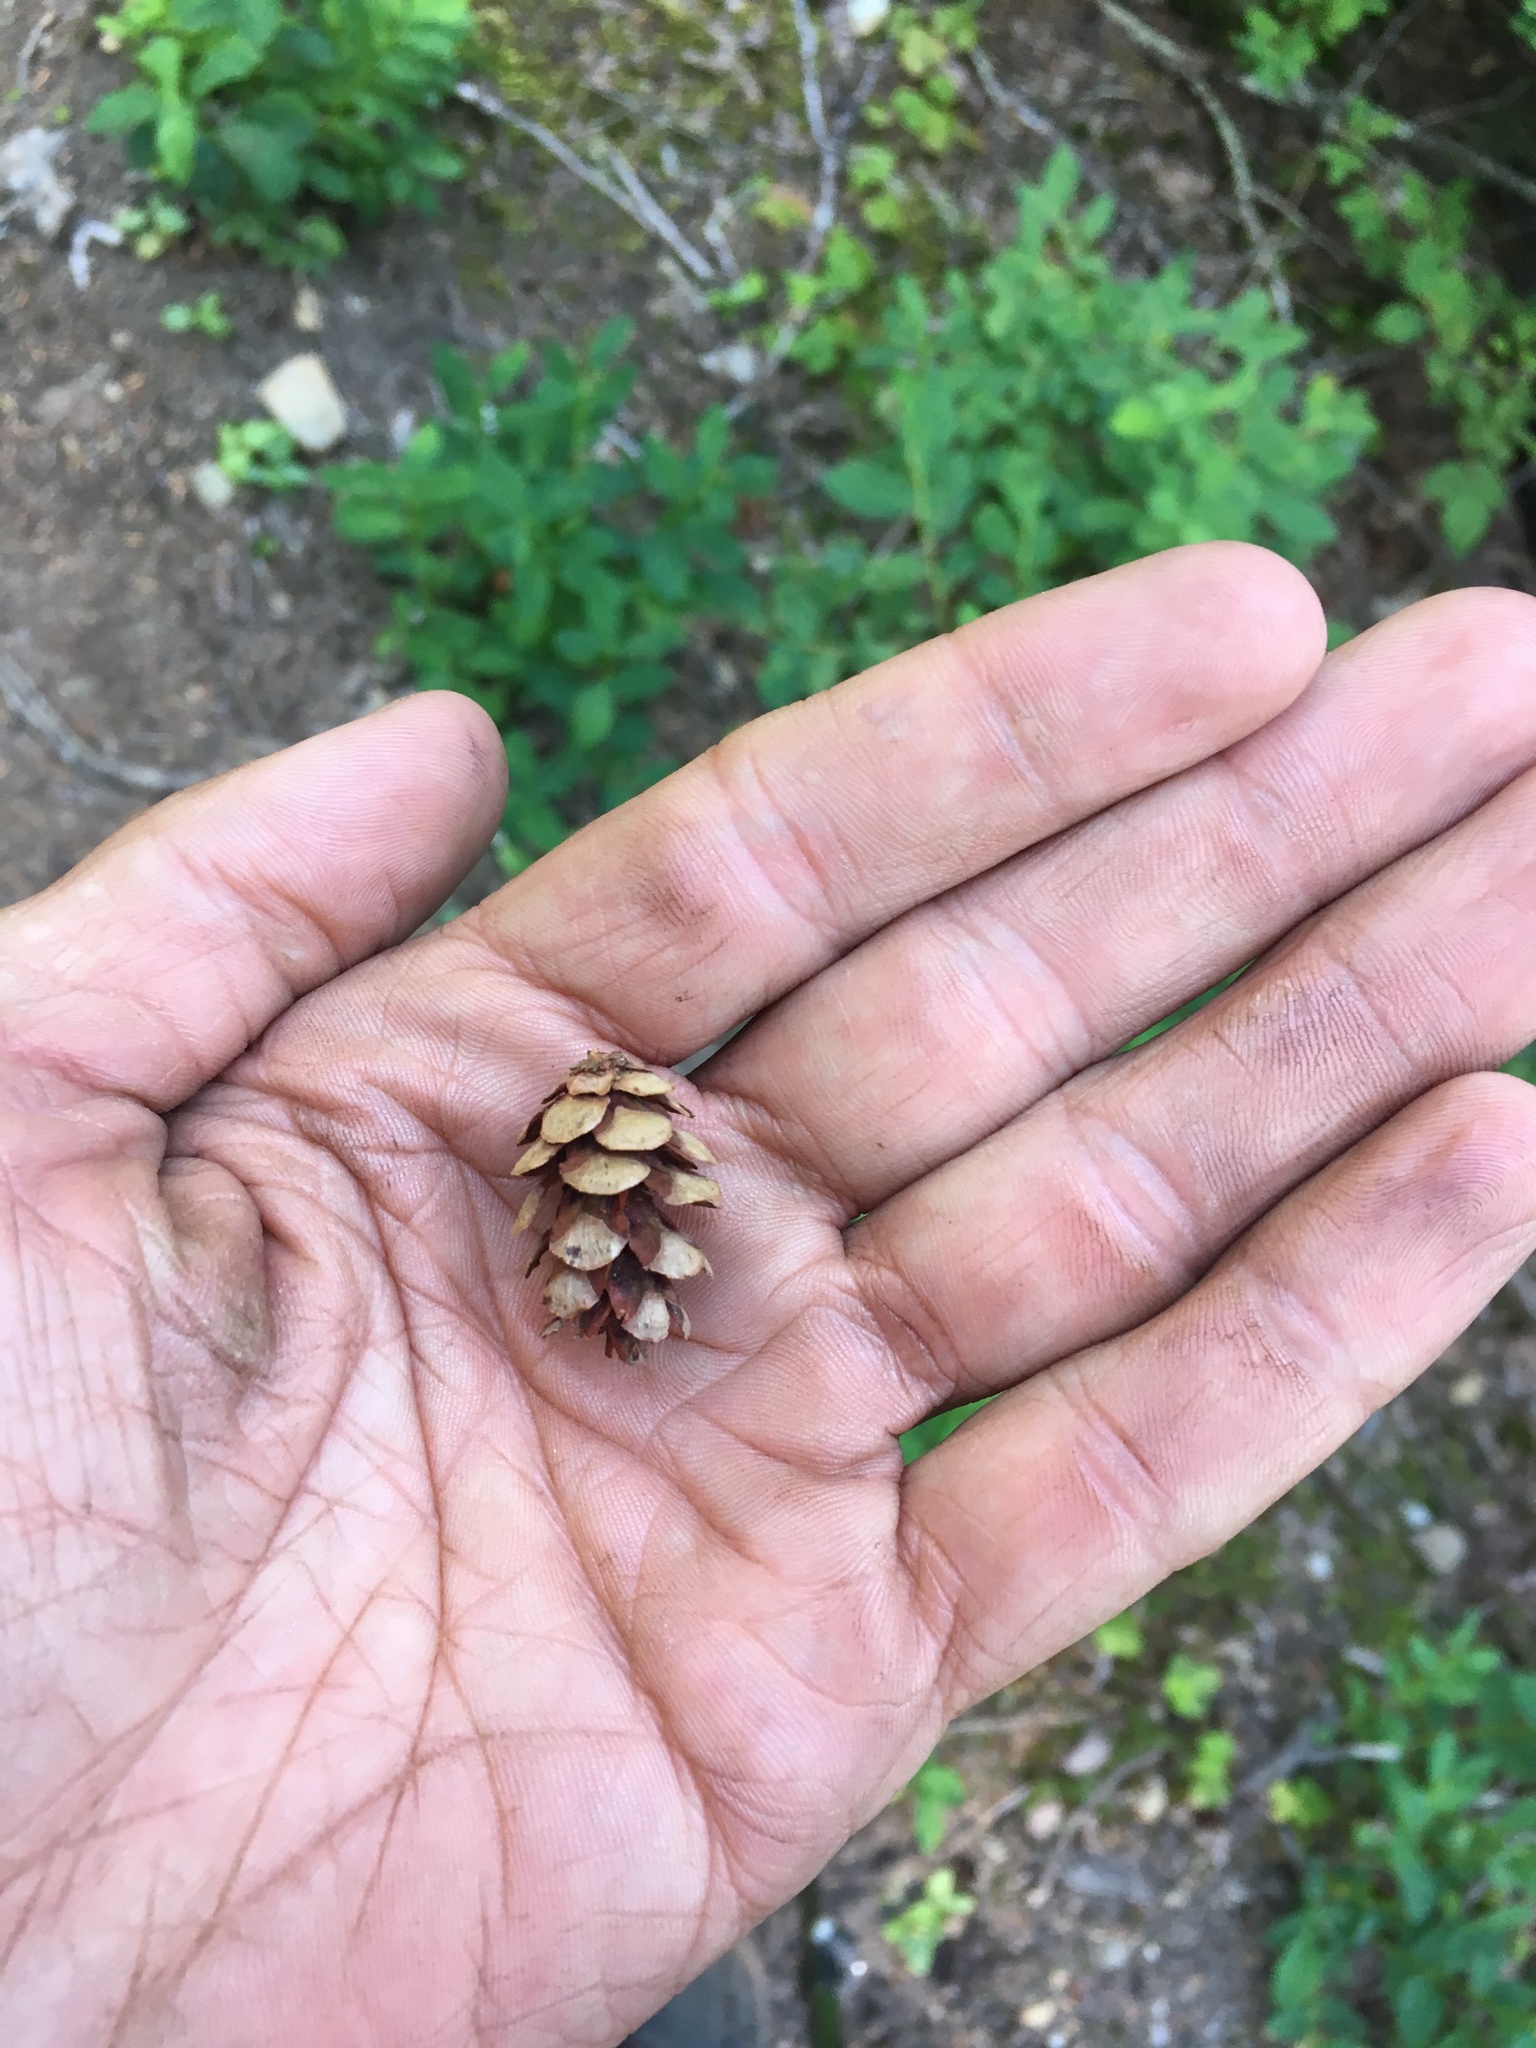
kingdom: Plantae
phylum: Tracheophyta
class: Pinopsida
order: Pinales
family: Pinaceae
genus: Tsuga
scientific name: Tsuga heterophylla
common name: Western hemlock
